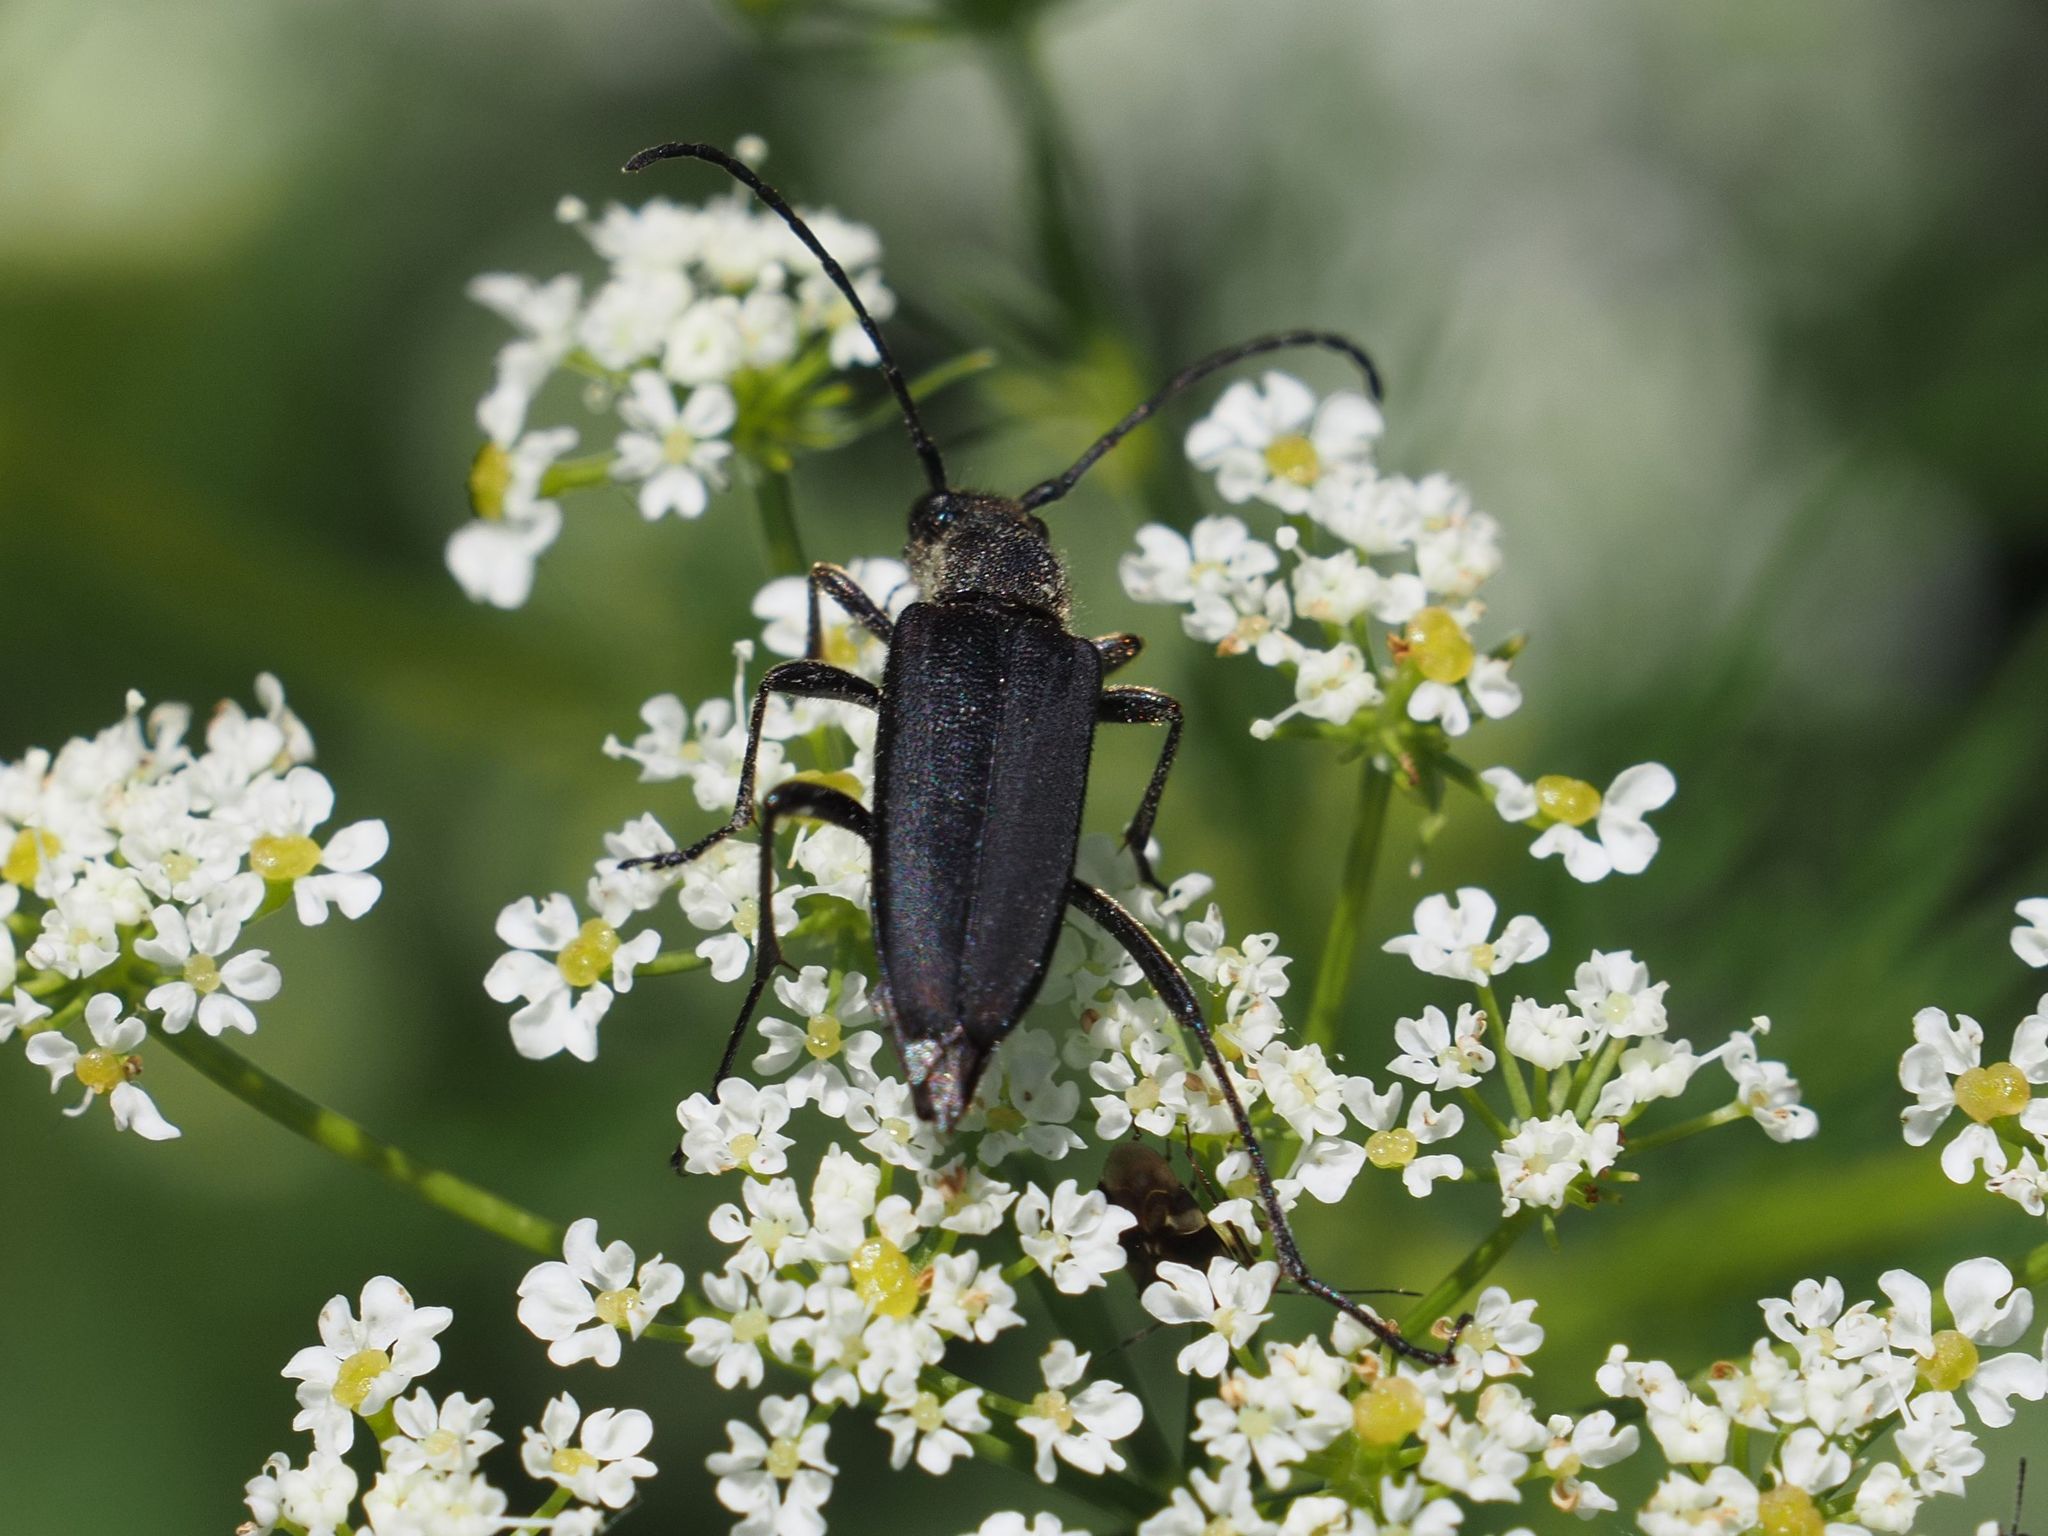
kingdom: Animalia
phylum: Arthropoda
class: Insecta
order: Coleoptera
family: Cerambycidae
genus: Anastrangalia
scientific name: Anastrangalia dubia
